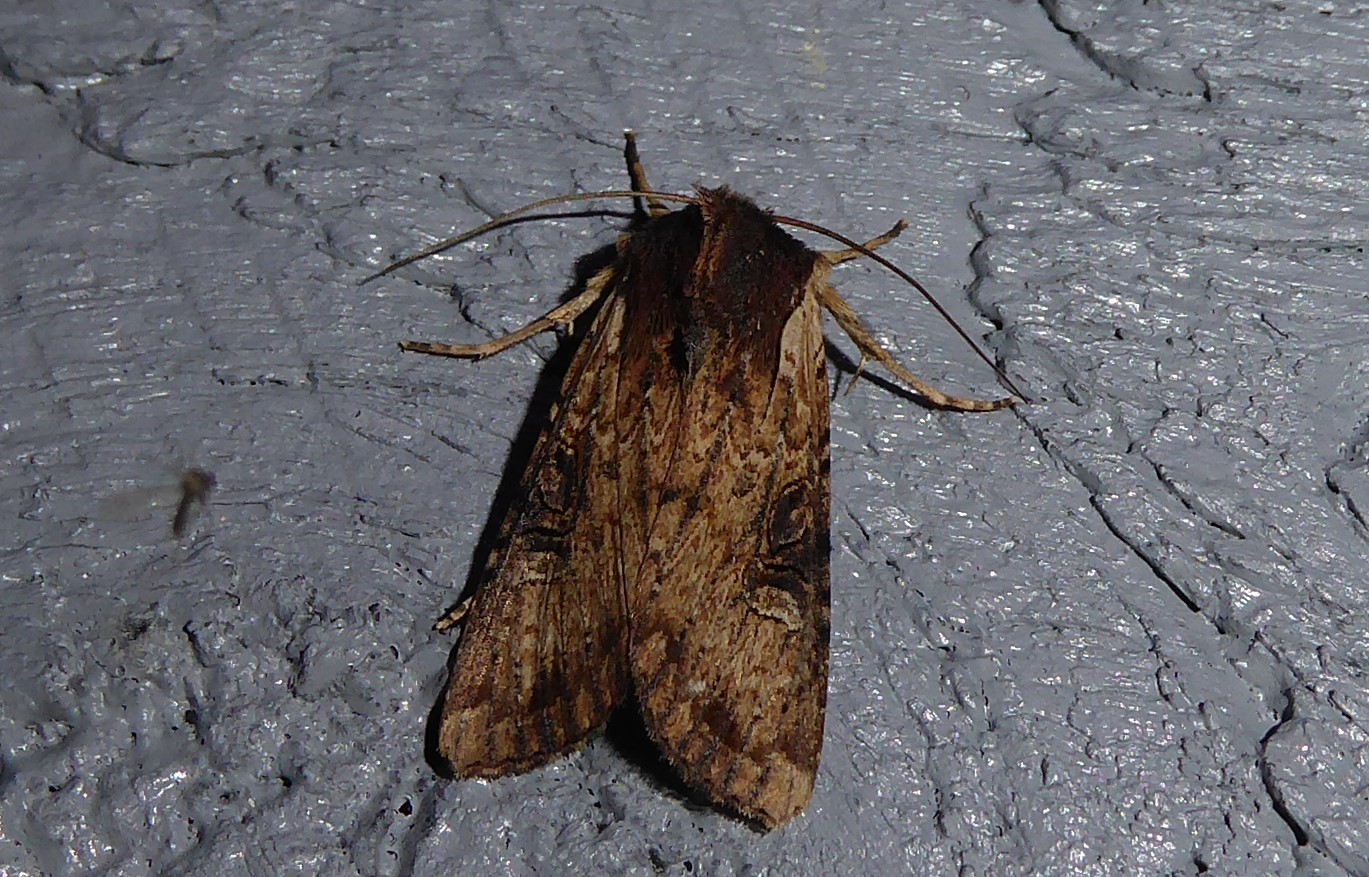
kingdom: Animalia
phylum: Arthropoda
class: Insecta
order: Lepidoptera
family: Noctuidae
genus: Ichneutica
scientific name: Ichneutica omoplaca
